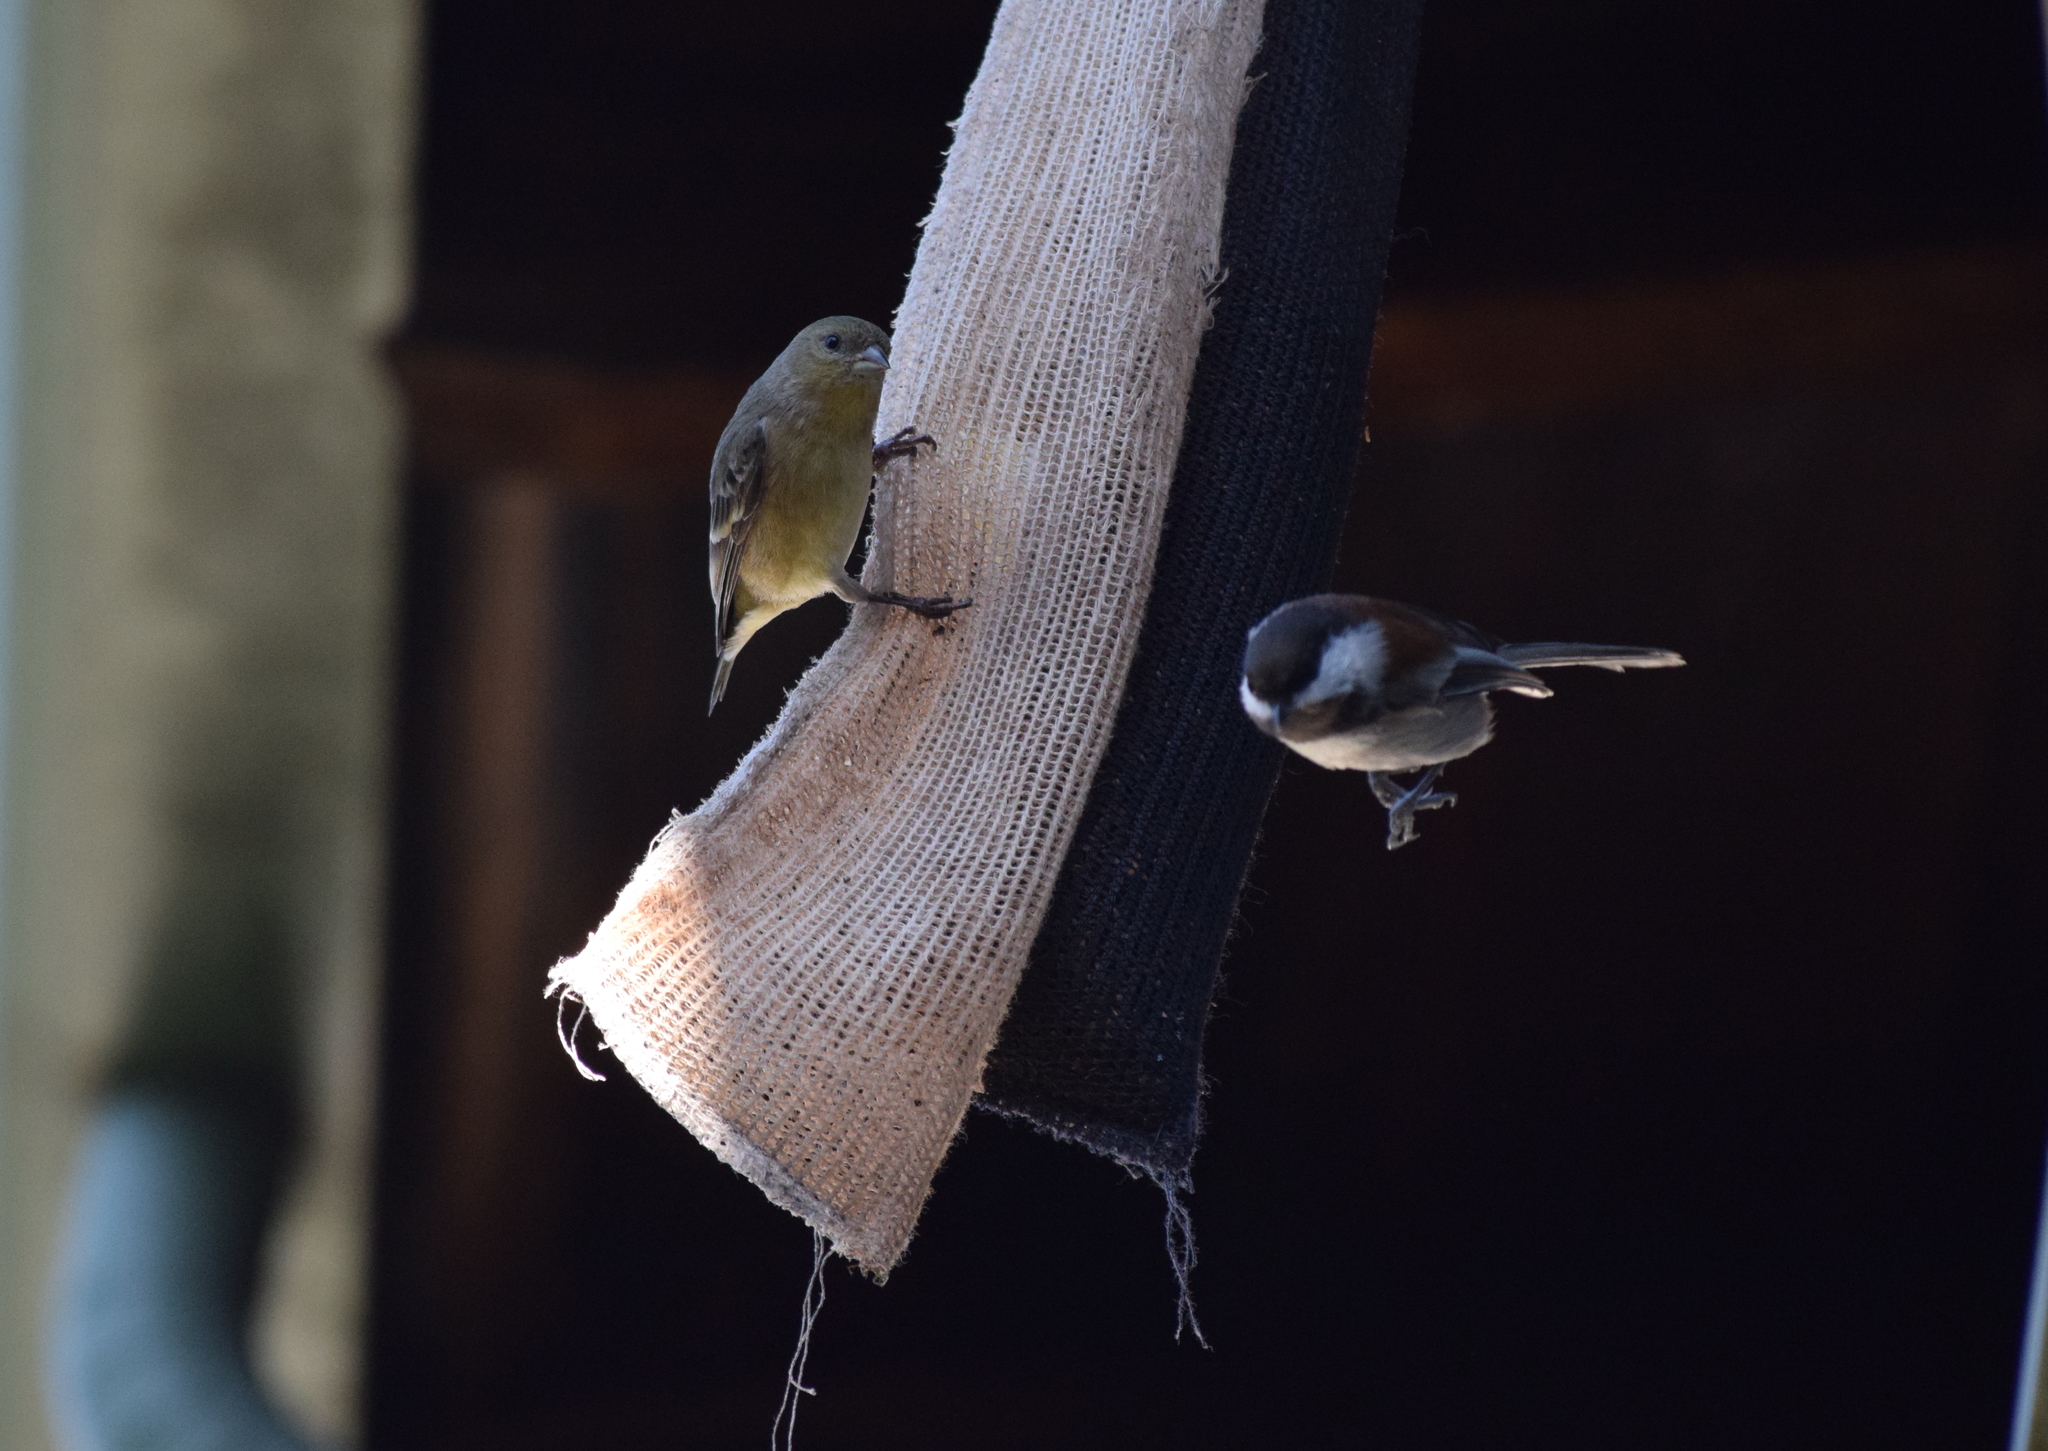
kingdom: Animalia
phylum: Chordata
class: Aves
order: Passeriformes
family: Paridae
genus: Poecile
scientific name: Poecile rufescens
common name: Chestnut-backed chickadee
